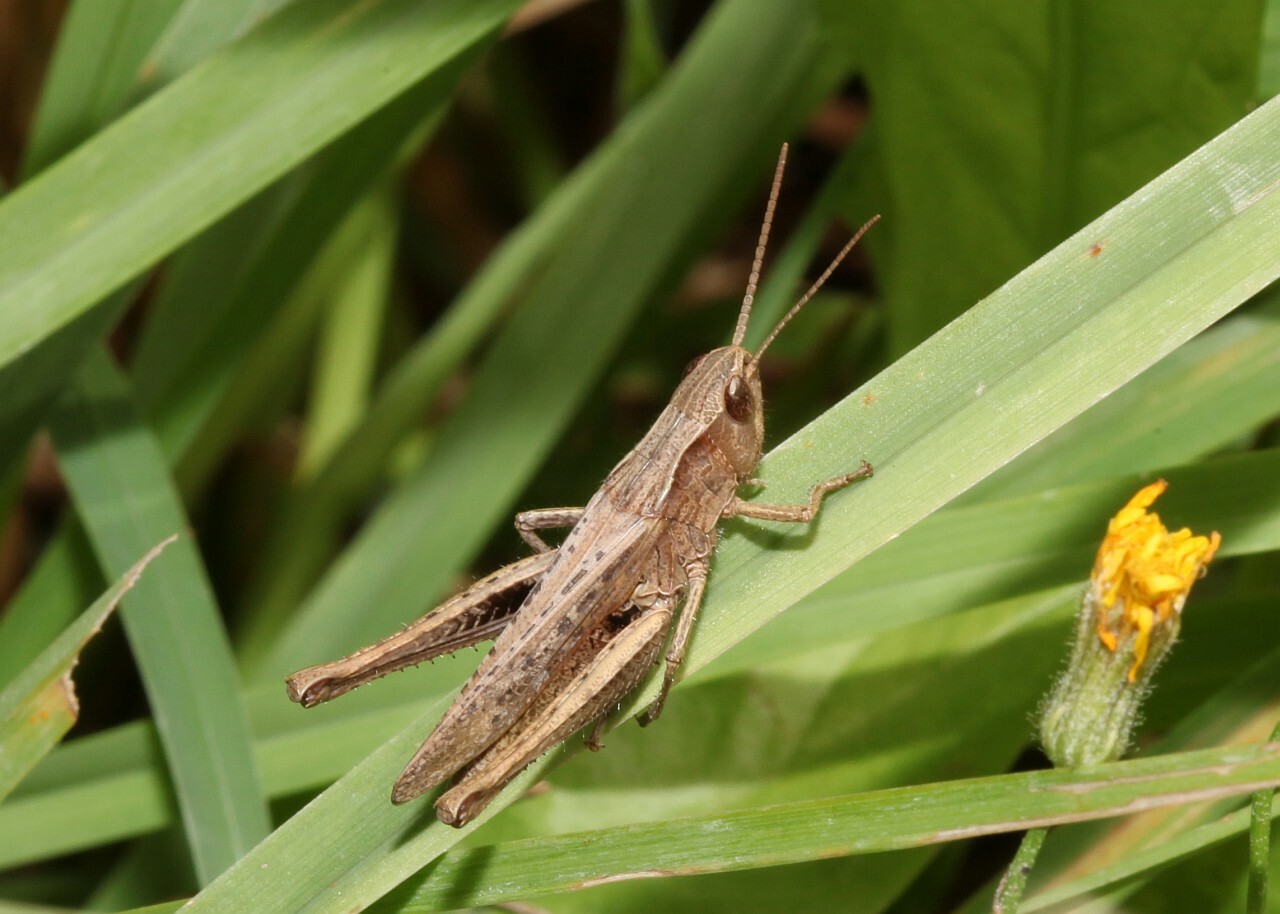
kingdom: Animalia
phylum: Arthropoda
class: Insecta
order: Orthoptera
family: Acrididae
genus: Chorthippus
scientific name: Chorthippus dorsatus
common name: Steppe grasshopper
